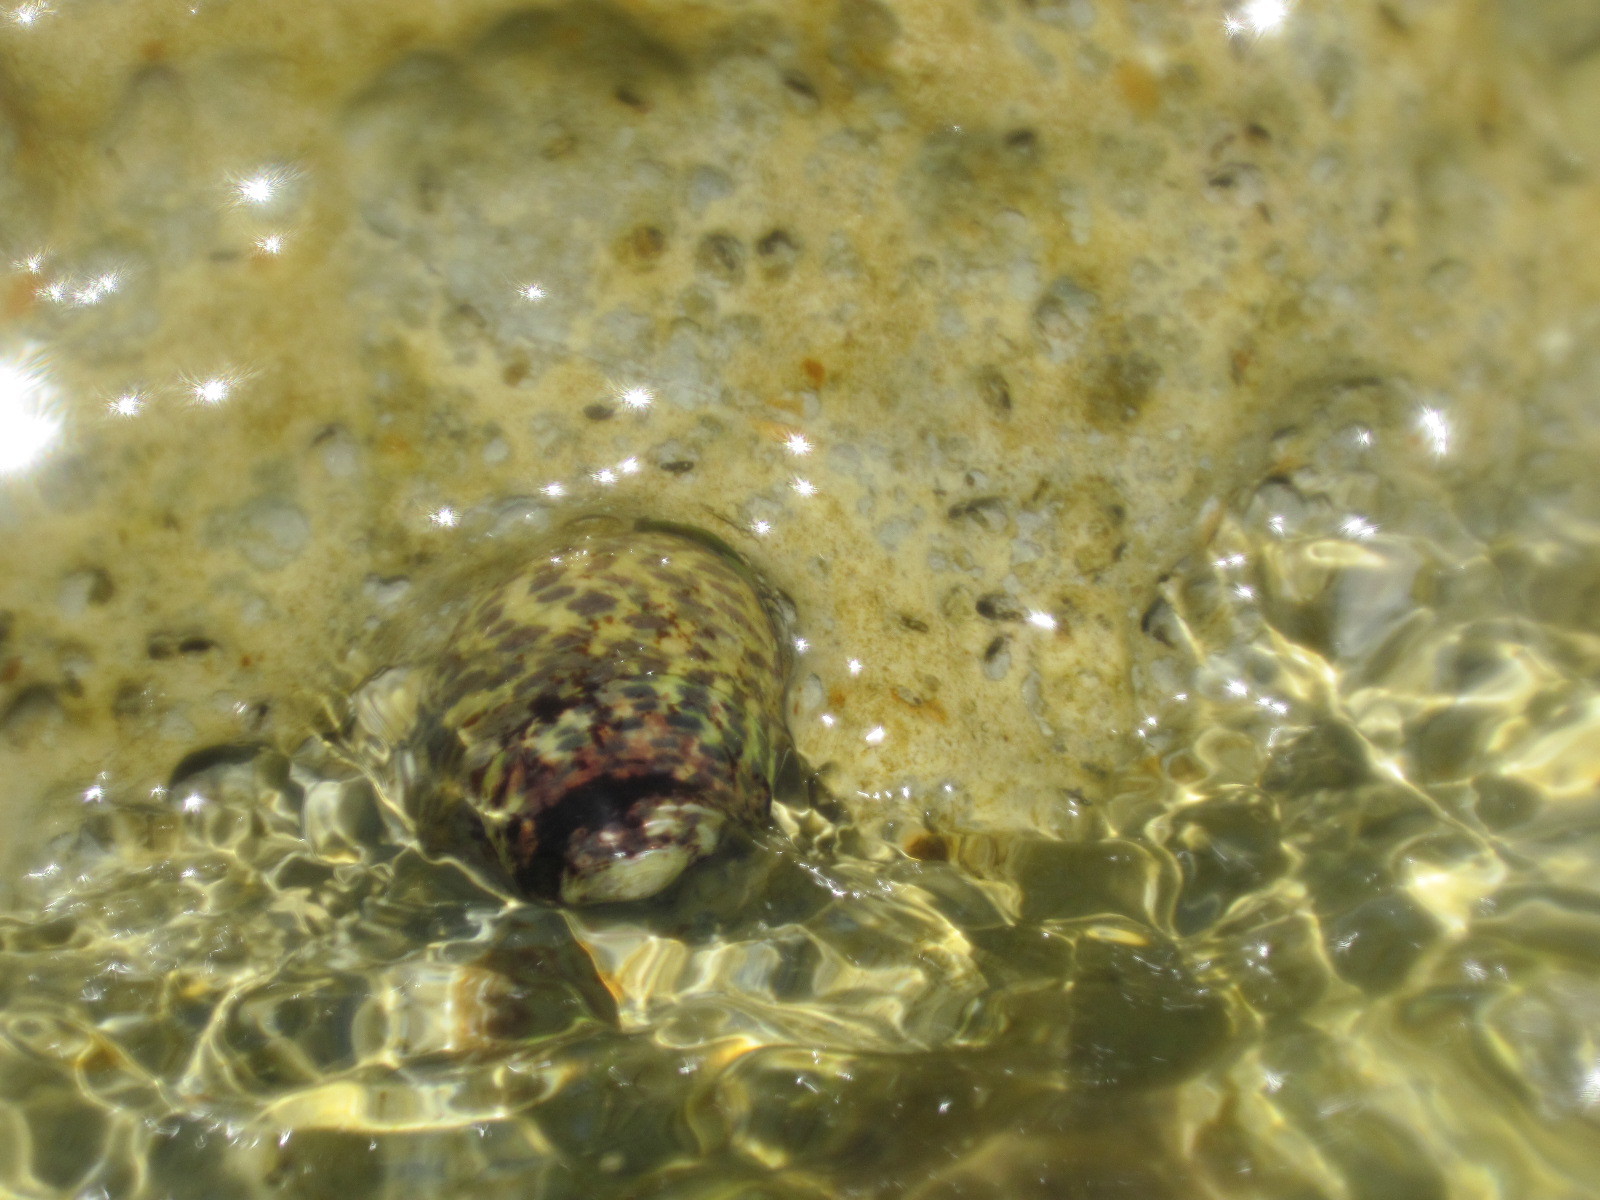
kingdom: Animalia
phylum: Mollusca
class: Gastropoda
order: Trochida
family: Trochidae
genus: Phorcus
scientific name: Phorcus turbinatus
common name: Turbinate monodont
